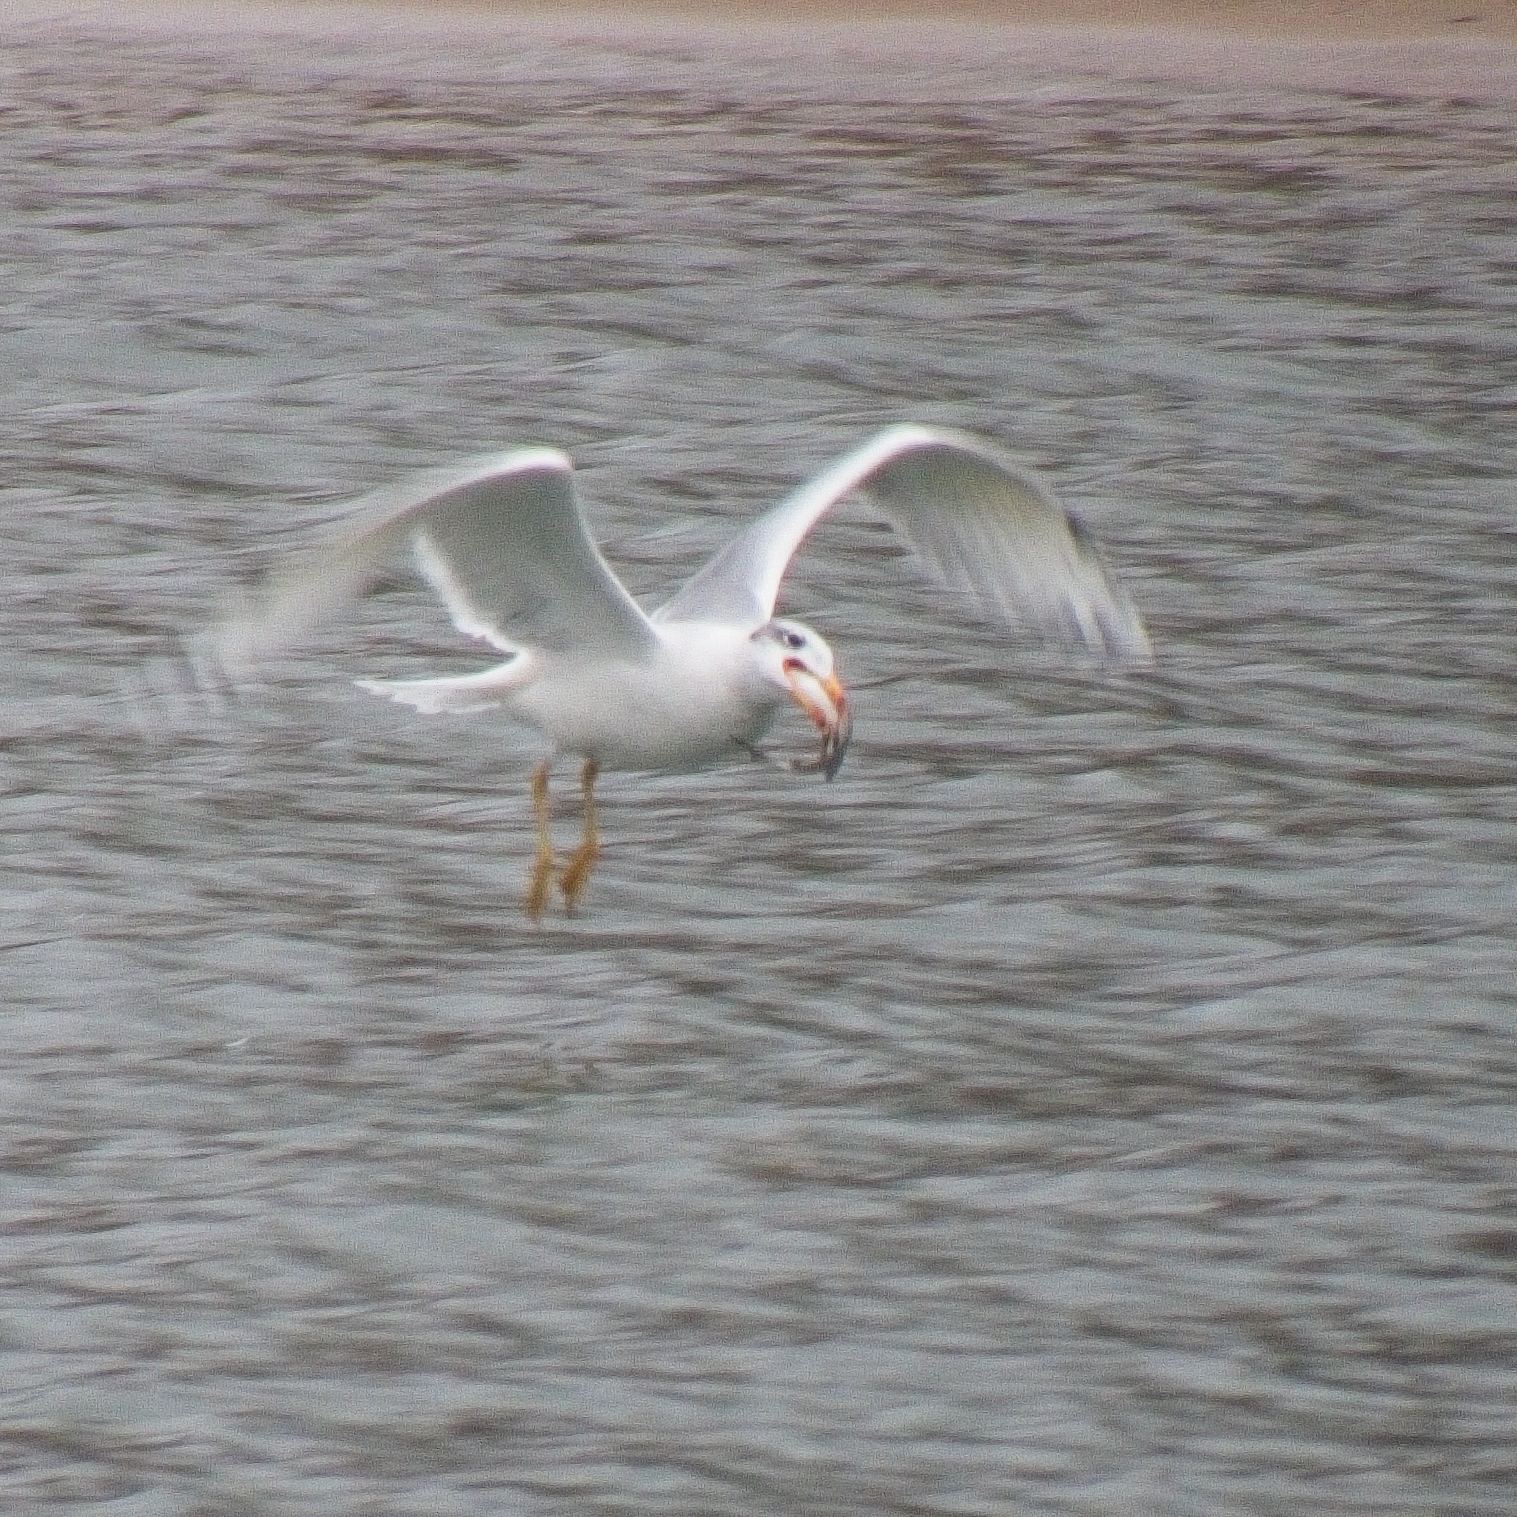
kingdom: Animalia
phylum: Chordata
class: Aves
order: Charadriiformes
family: Laridae
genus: Ichthyaetus
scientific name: Ichthyaetus ichthyaetus
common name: Pallas's gull
